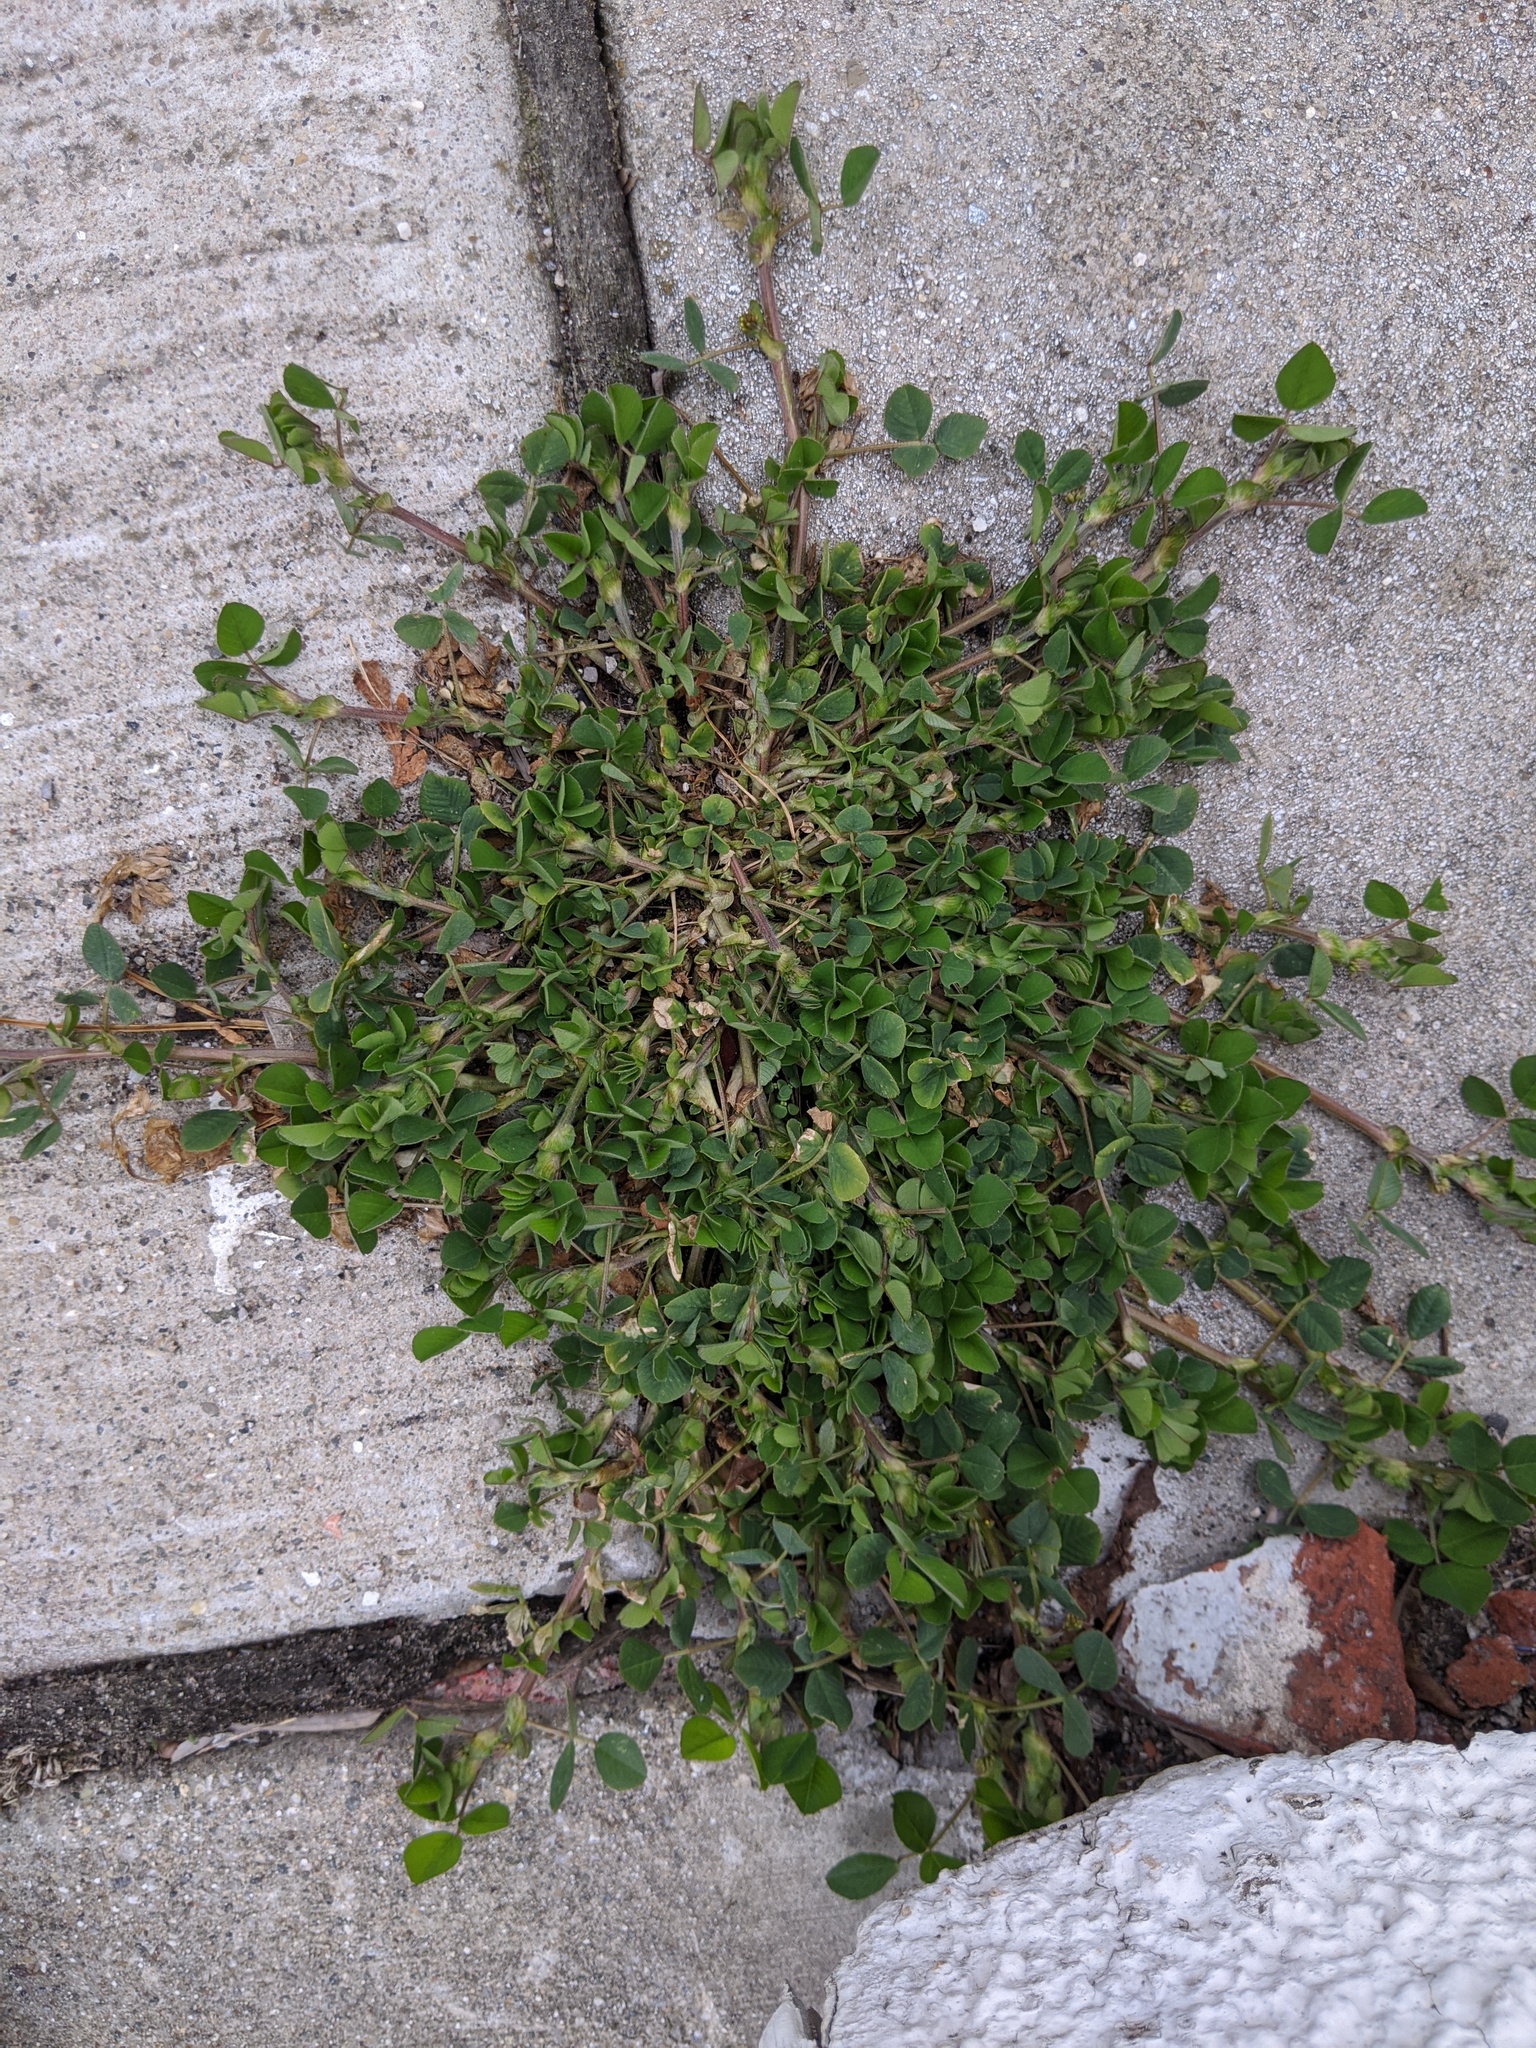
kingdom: Plantae
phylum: Tracheophyta
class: Magnoliopsida
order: Fabales
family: Fabaceae
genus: Medicago
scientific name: Medicago lupulina
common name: Black medick
